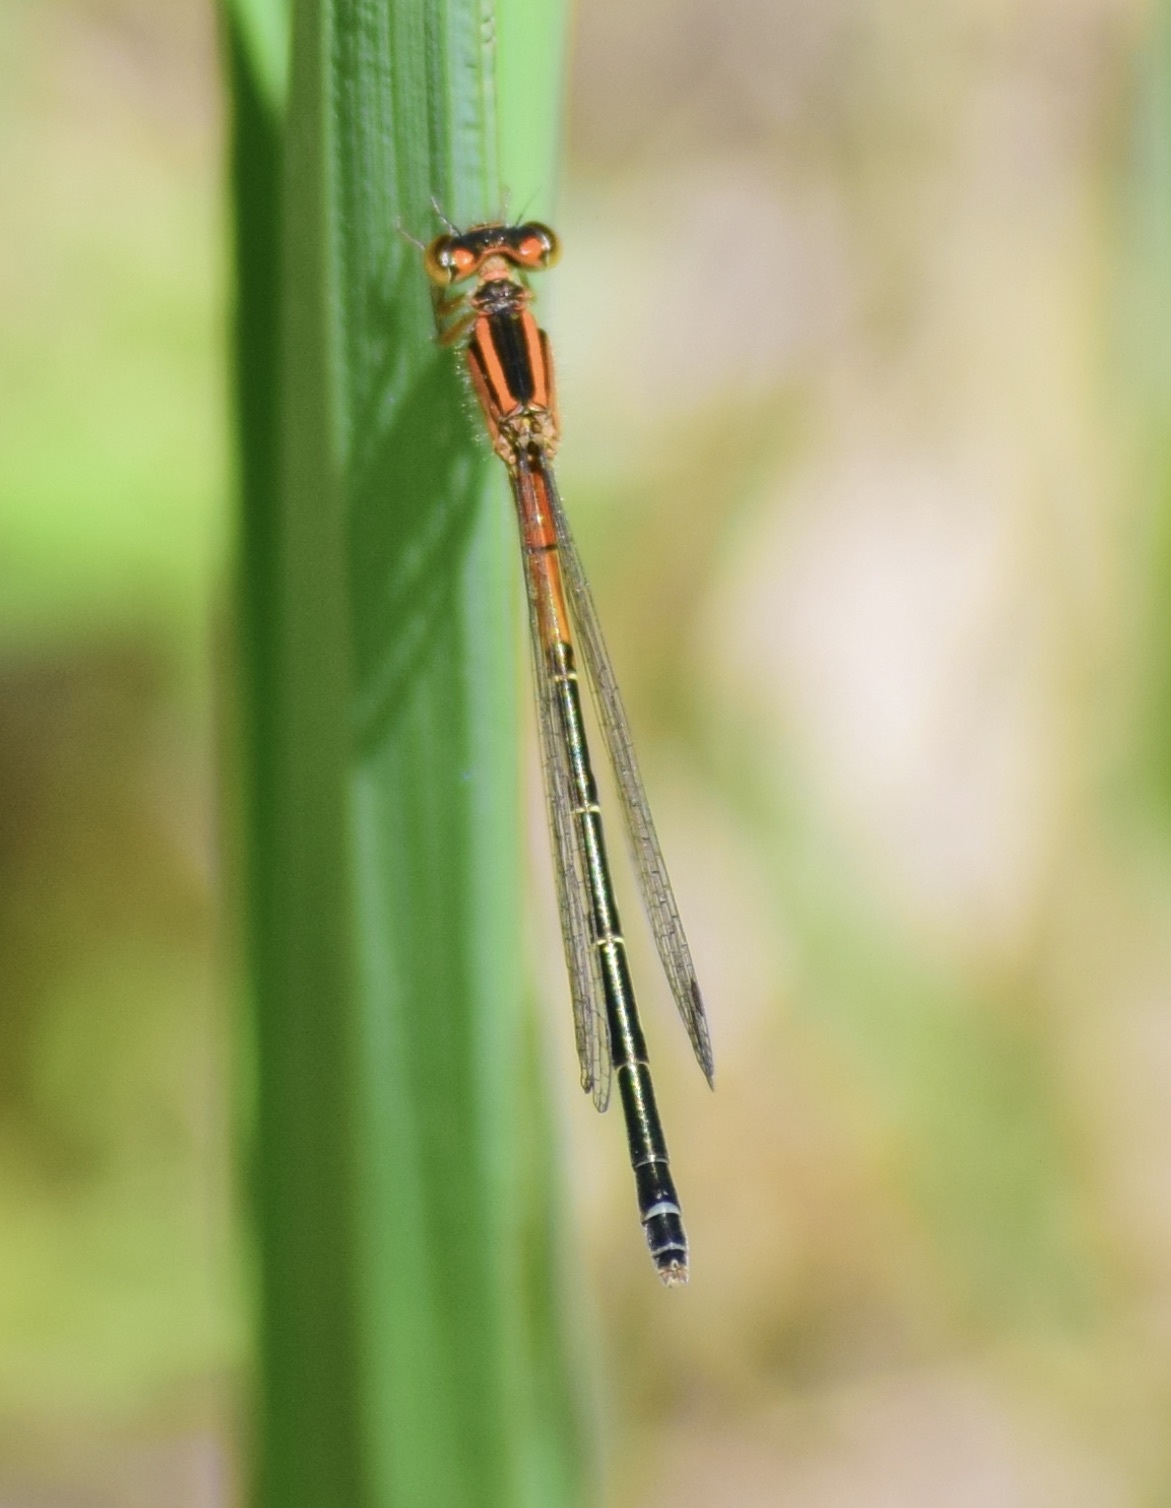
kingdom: Animalia
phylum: Arthropoda
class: Insecta
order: Odonata
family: Coenagrionidae
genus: Ischnura
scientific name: Ischnura verticalis
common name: Eastern forktail
